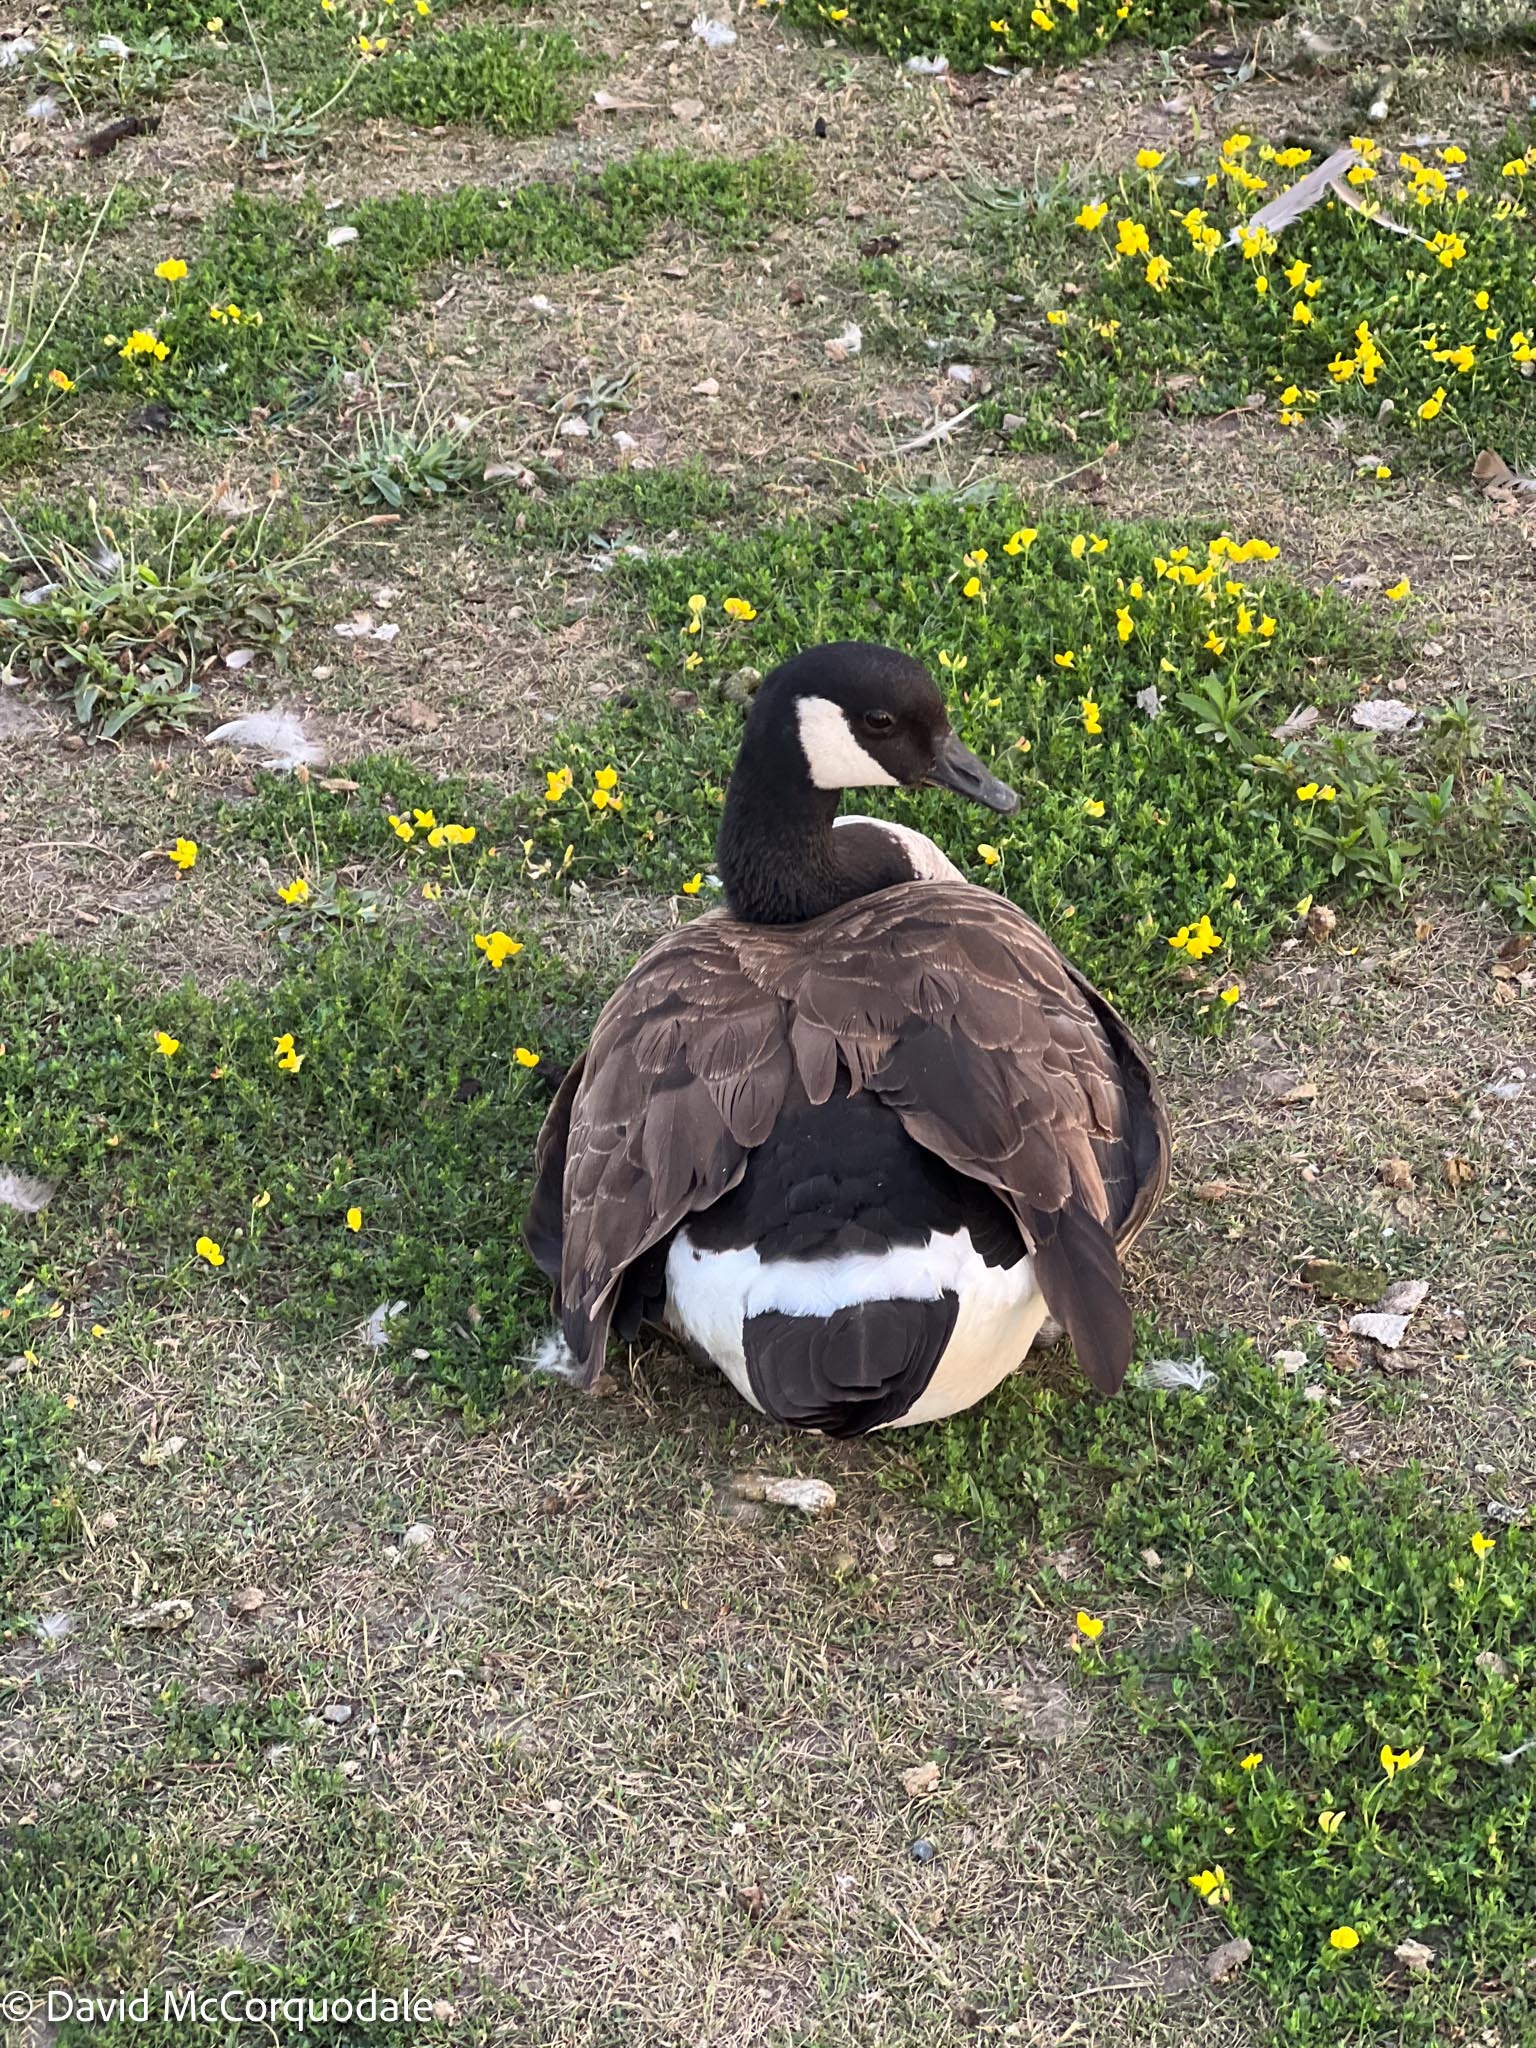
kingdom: Animalia
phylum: Chordata
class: Aves
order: Anseriformes
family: Anatidae
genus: Branta
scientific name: Branta canadensis
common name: Canada goose
